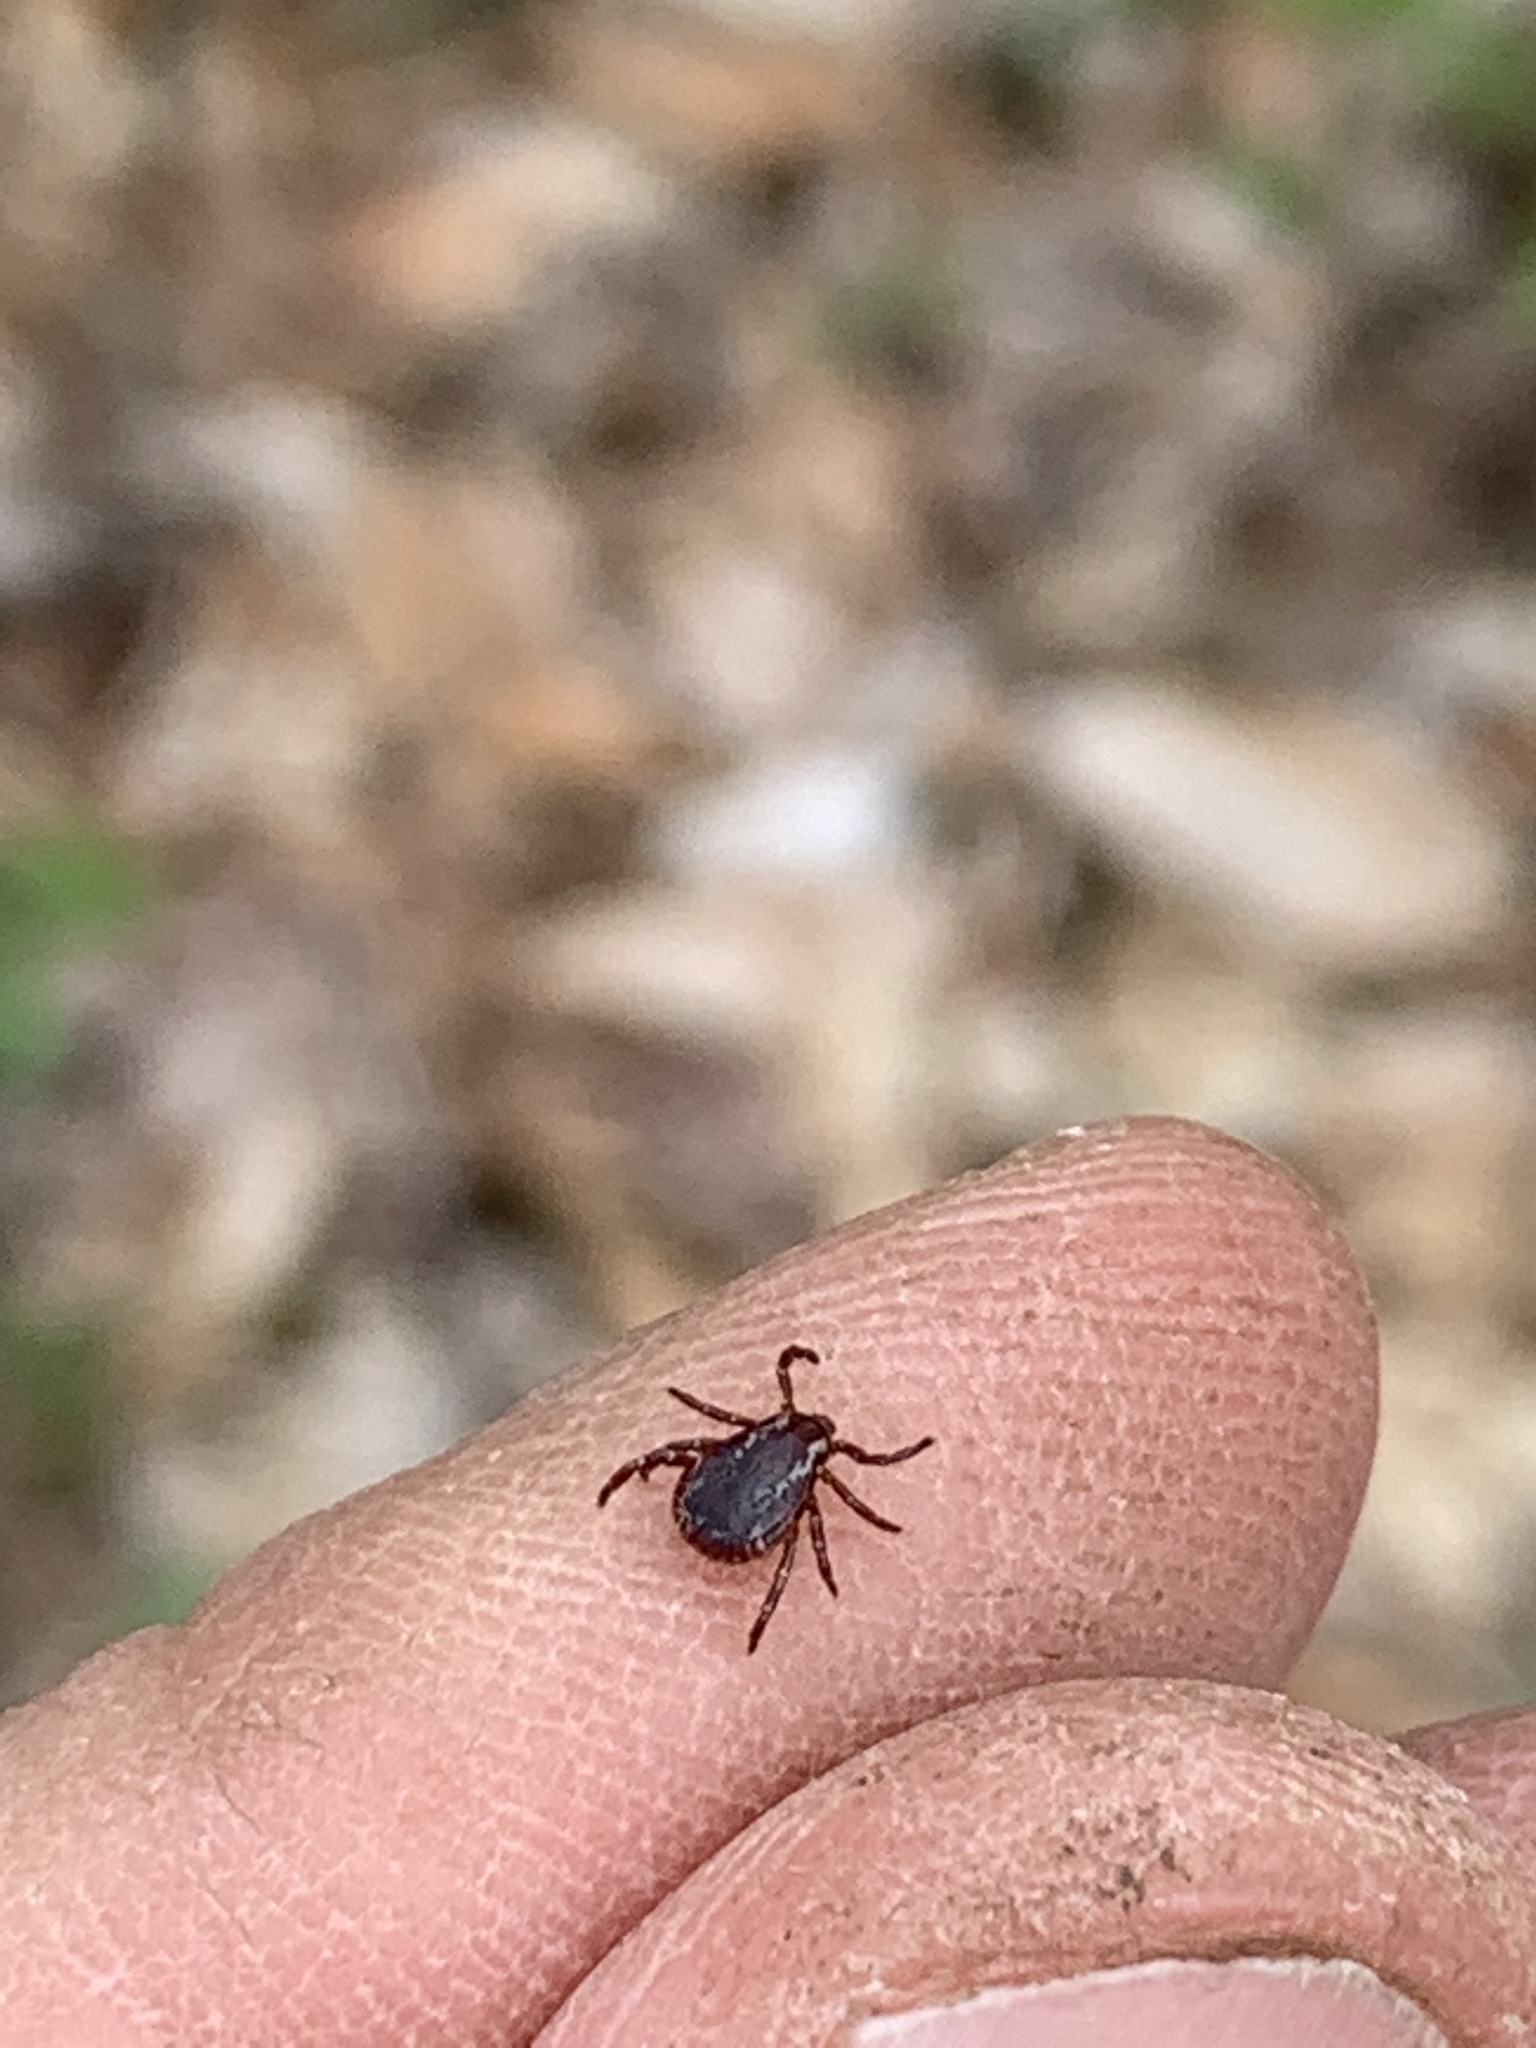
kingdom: Animalia
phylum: Arthropoda
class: Arachnida
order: Ixodida
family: Ixodidae
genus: Dermacentor
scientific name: Dermacentor variabilis
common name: American dog tick
